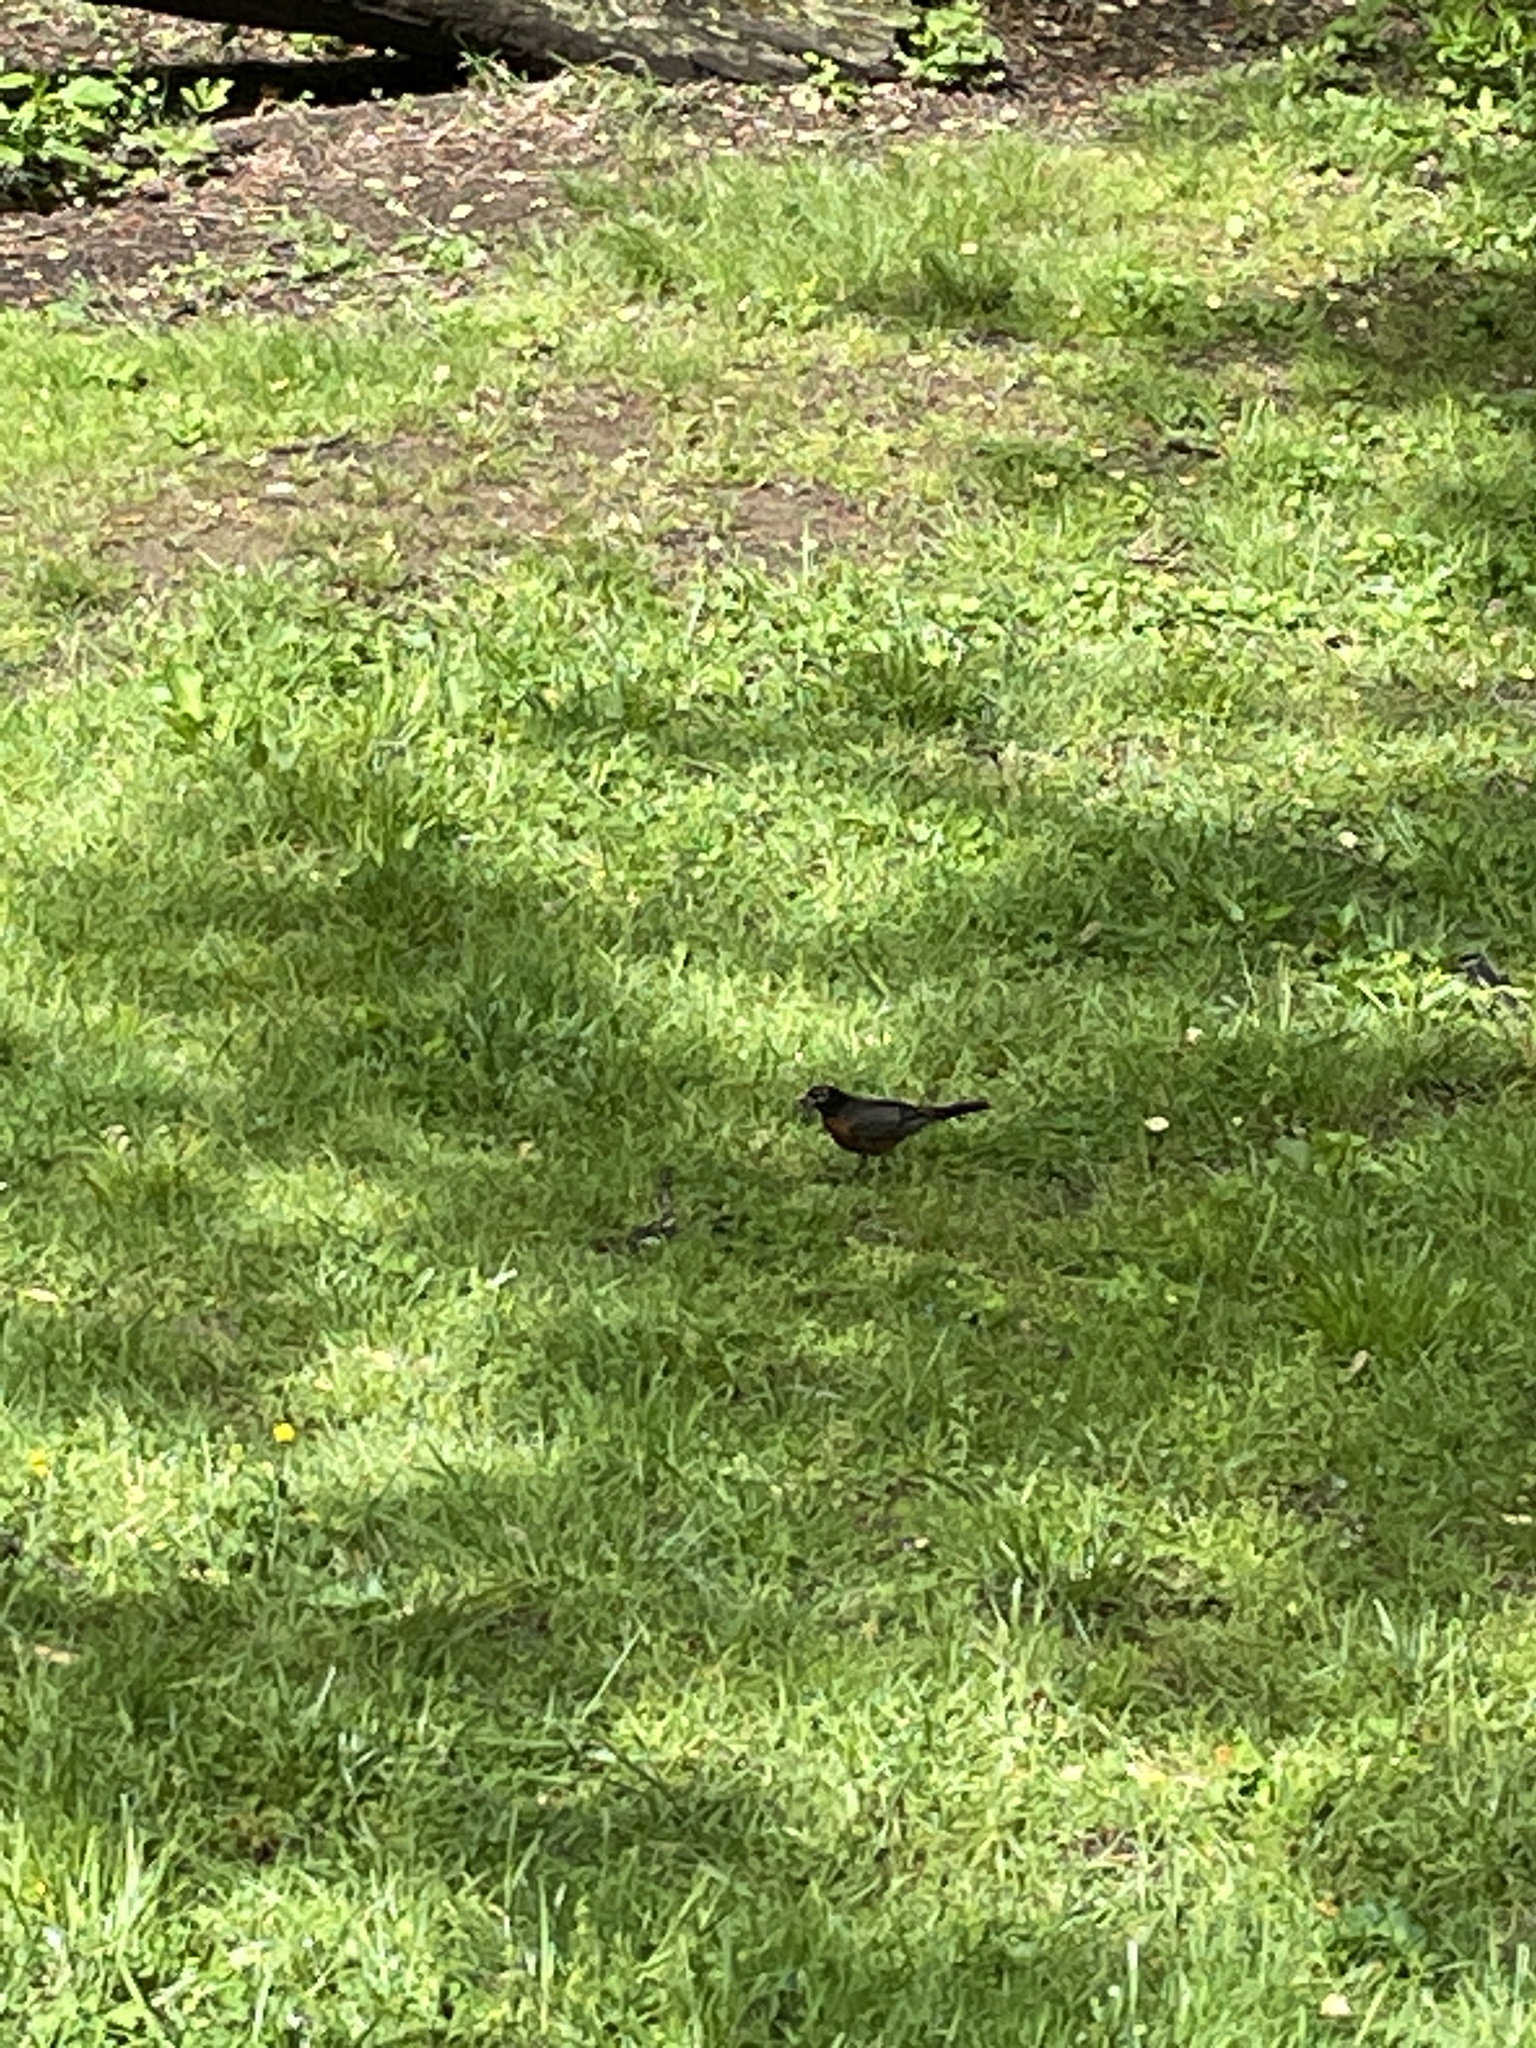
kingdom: Animalia
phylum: Chordata
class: Aves
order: Passeriformes
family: Turdidae
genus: Turdus
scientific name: Turdus migratorius
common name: American robin
